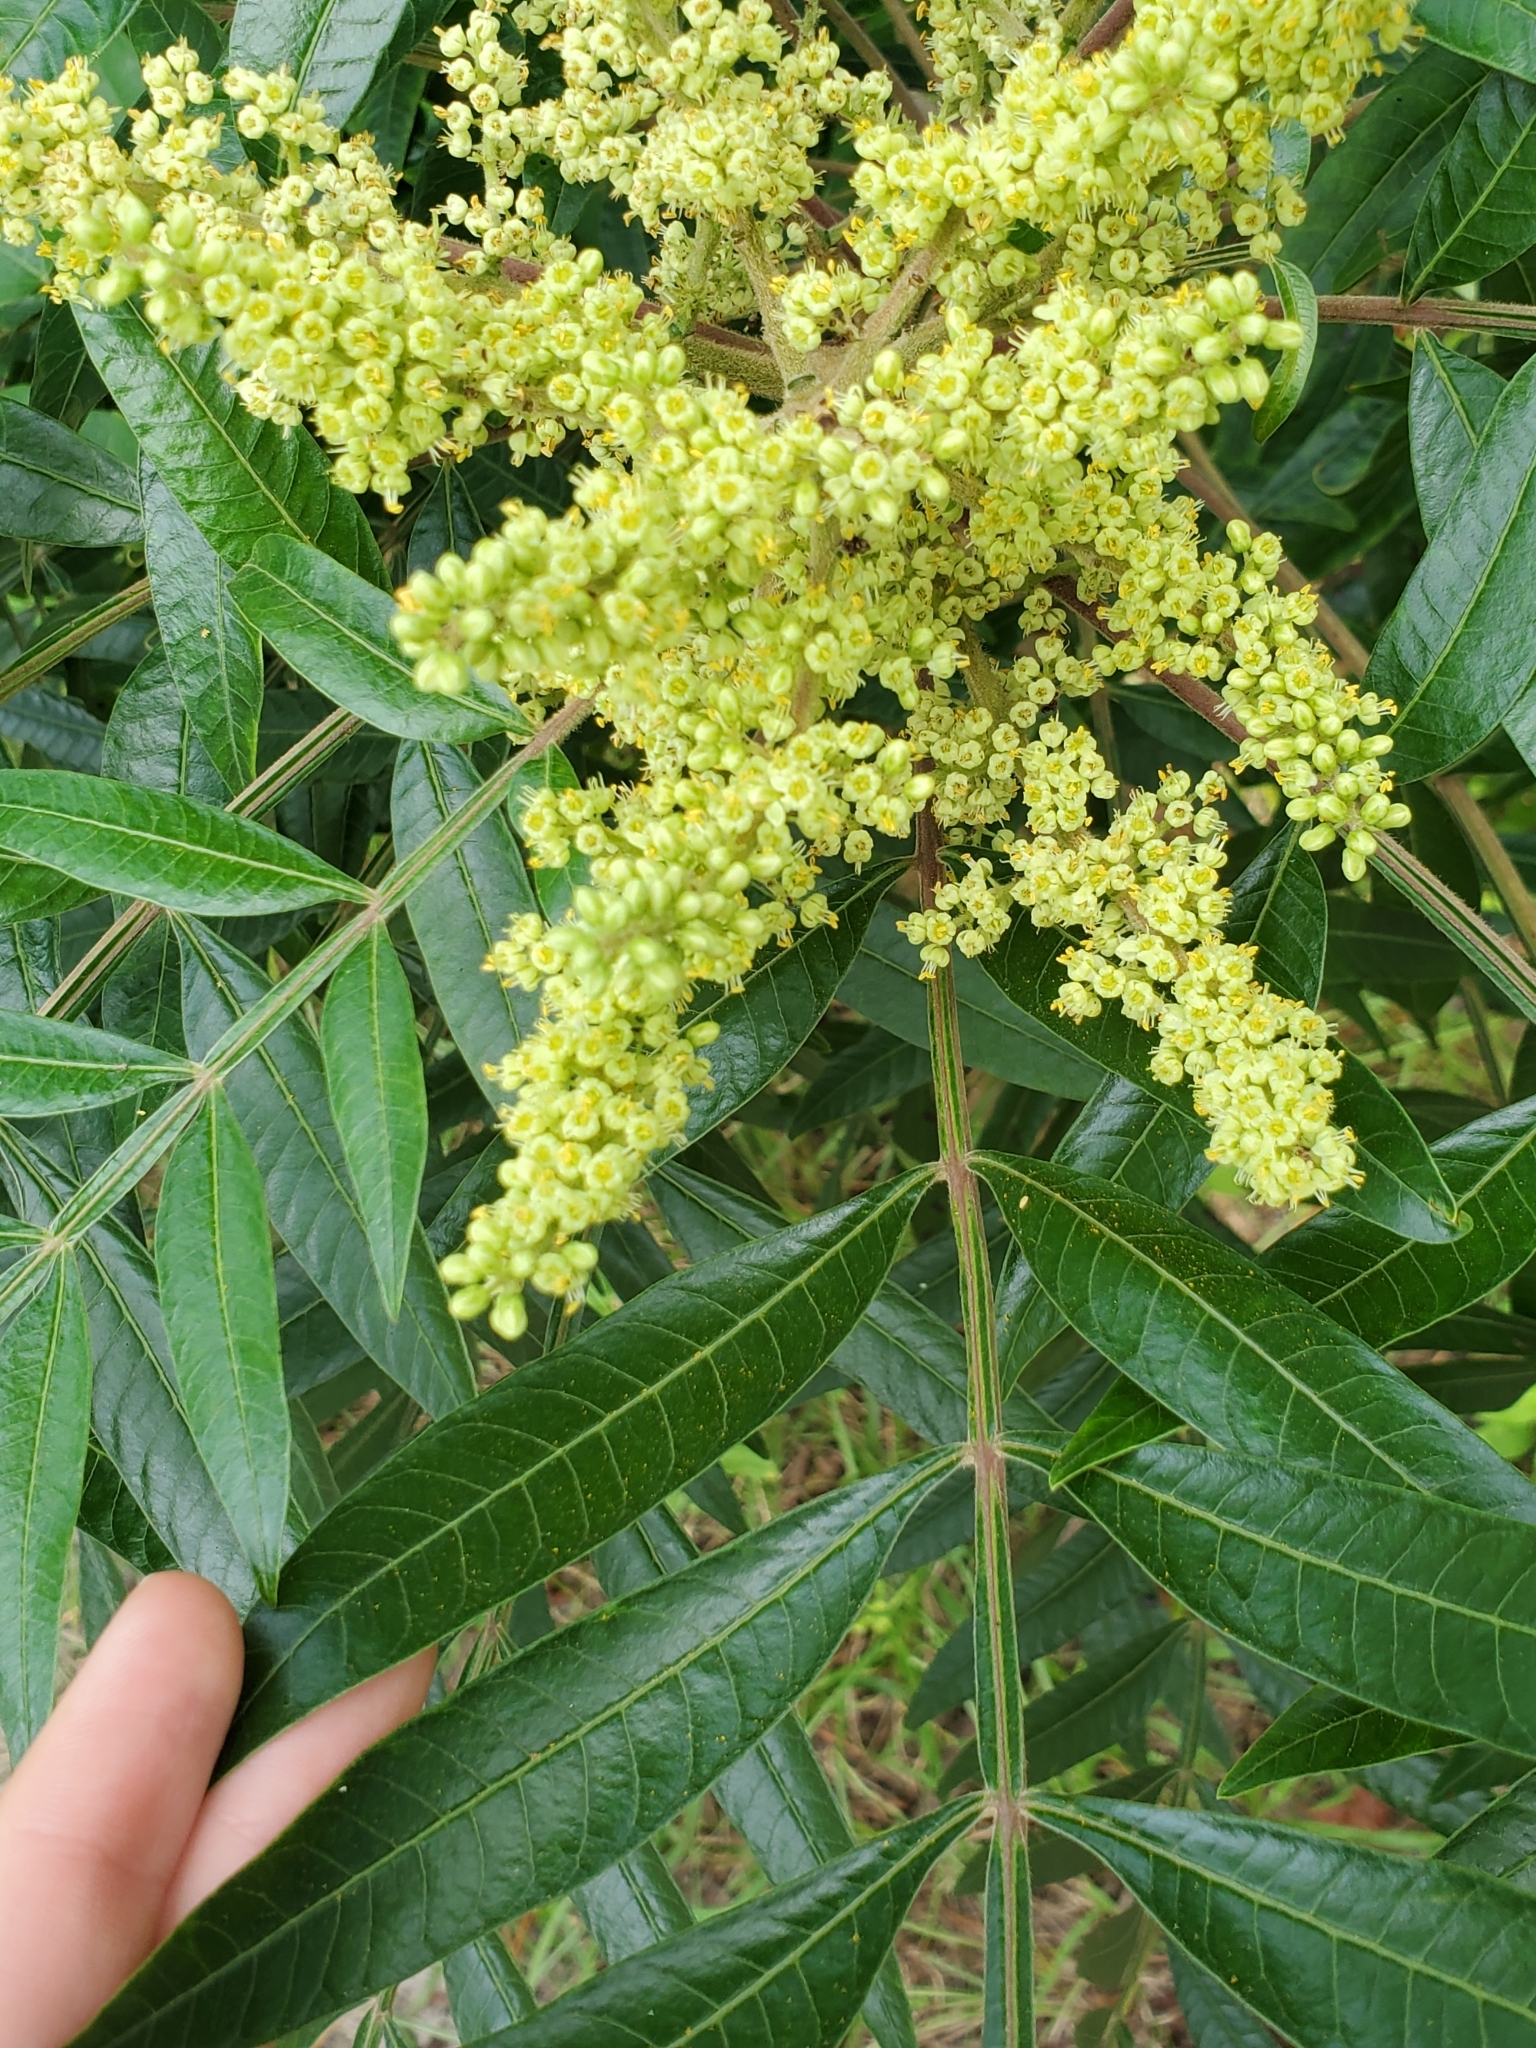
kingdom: Plantae
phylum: Tracheophyta
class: Magnoliopsida
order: Sapindales
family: Anacardiaceae
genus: Rhus
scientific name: Rhus copallina
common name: Shining sumac
